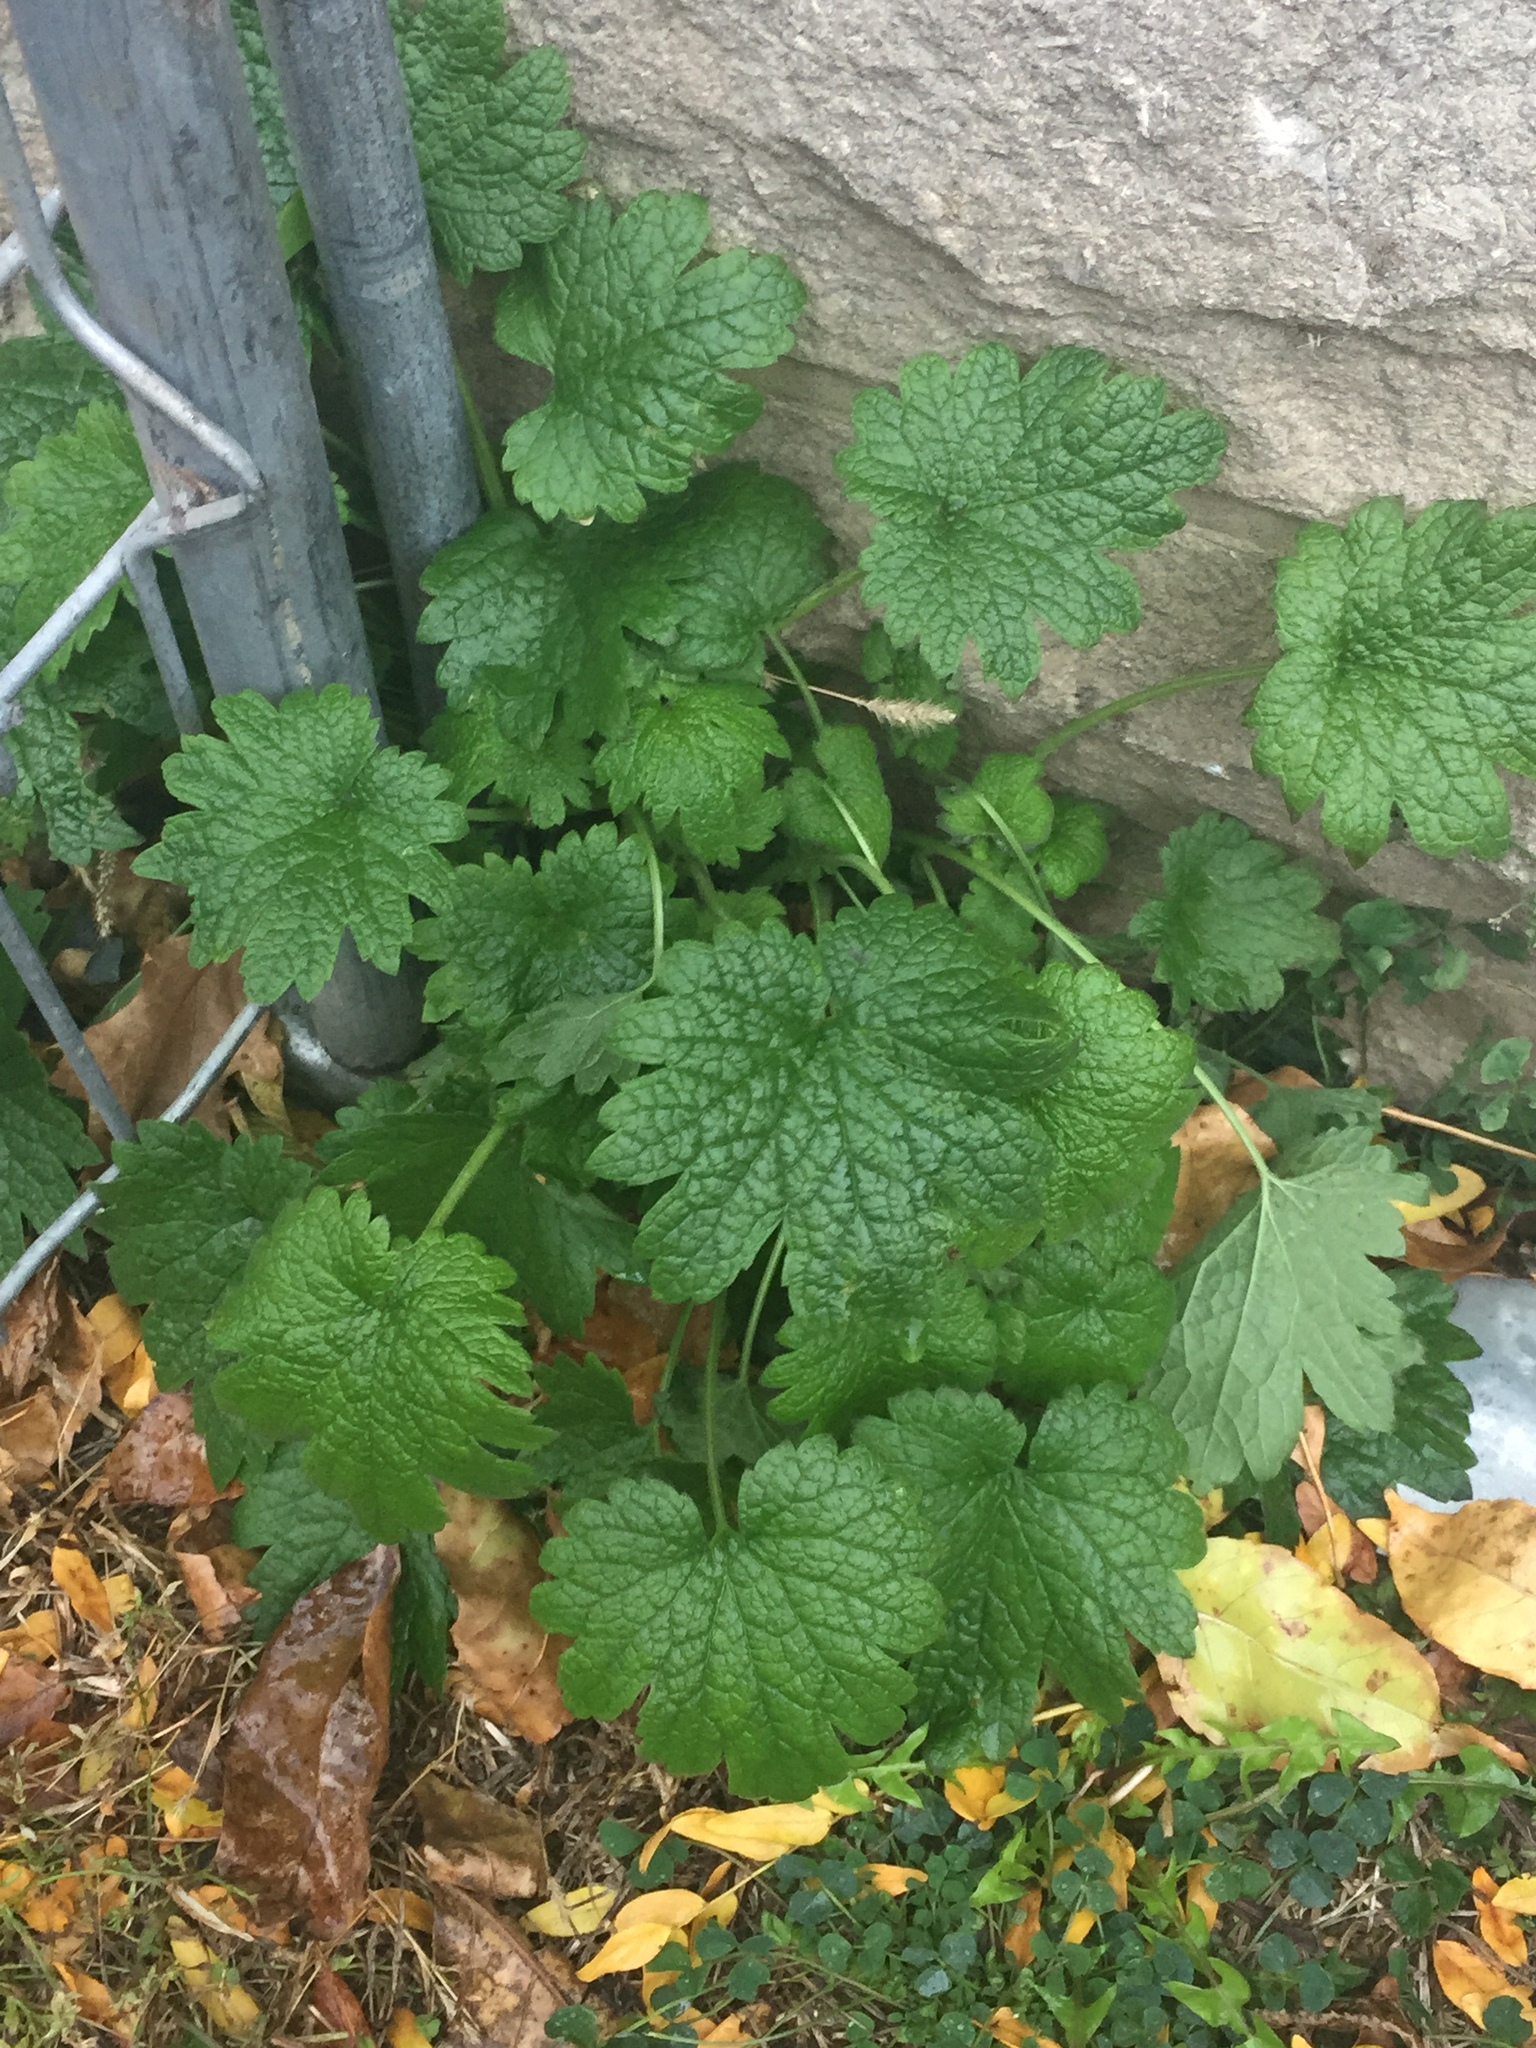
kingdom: Plantae
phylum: Tracheophyta
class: Magnoliopsida
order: Lamiales
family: Lamiaceae
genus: Leonurus
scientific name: Leonurus cardiaca
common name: Motherwort
